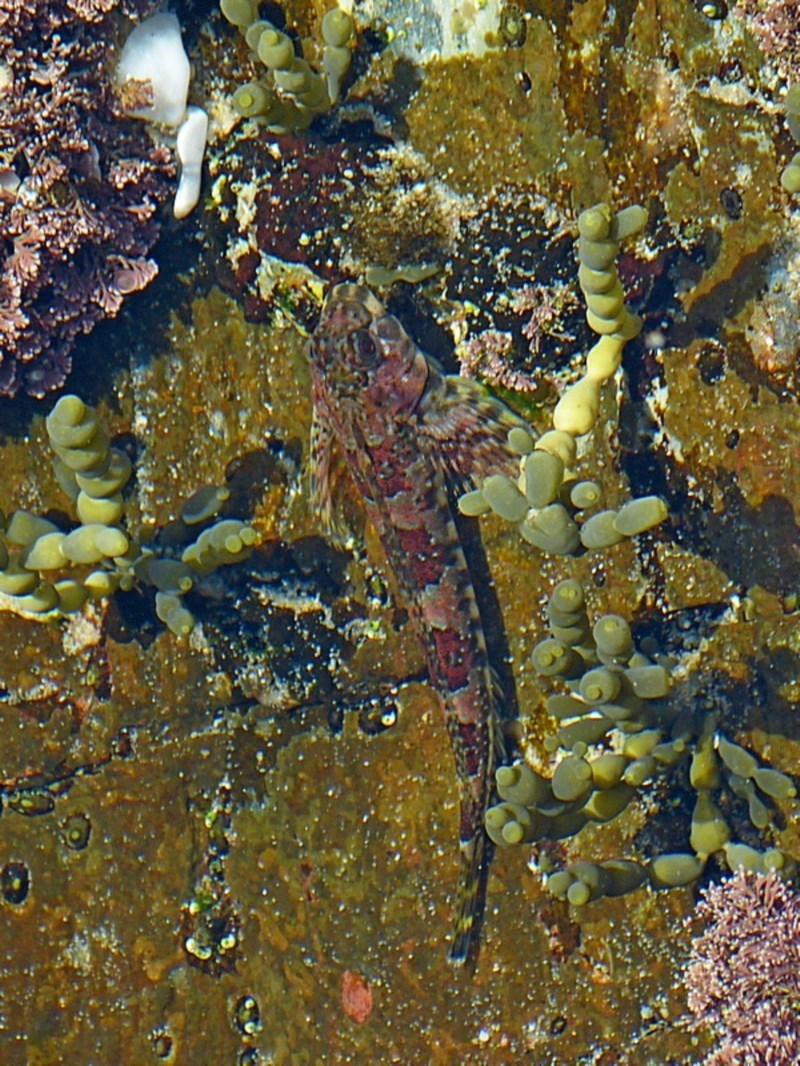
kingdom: Animalia
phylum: Chordata
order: Perciformes
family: Tripterygiidae
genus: Lepidoblennius
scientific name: Lepidoblennius haplodactylus
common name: Eastern jumping blenny
